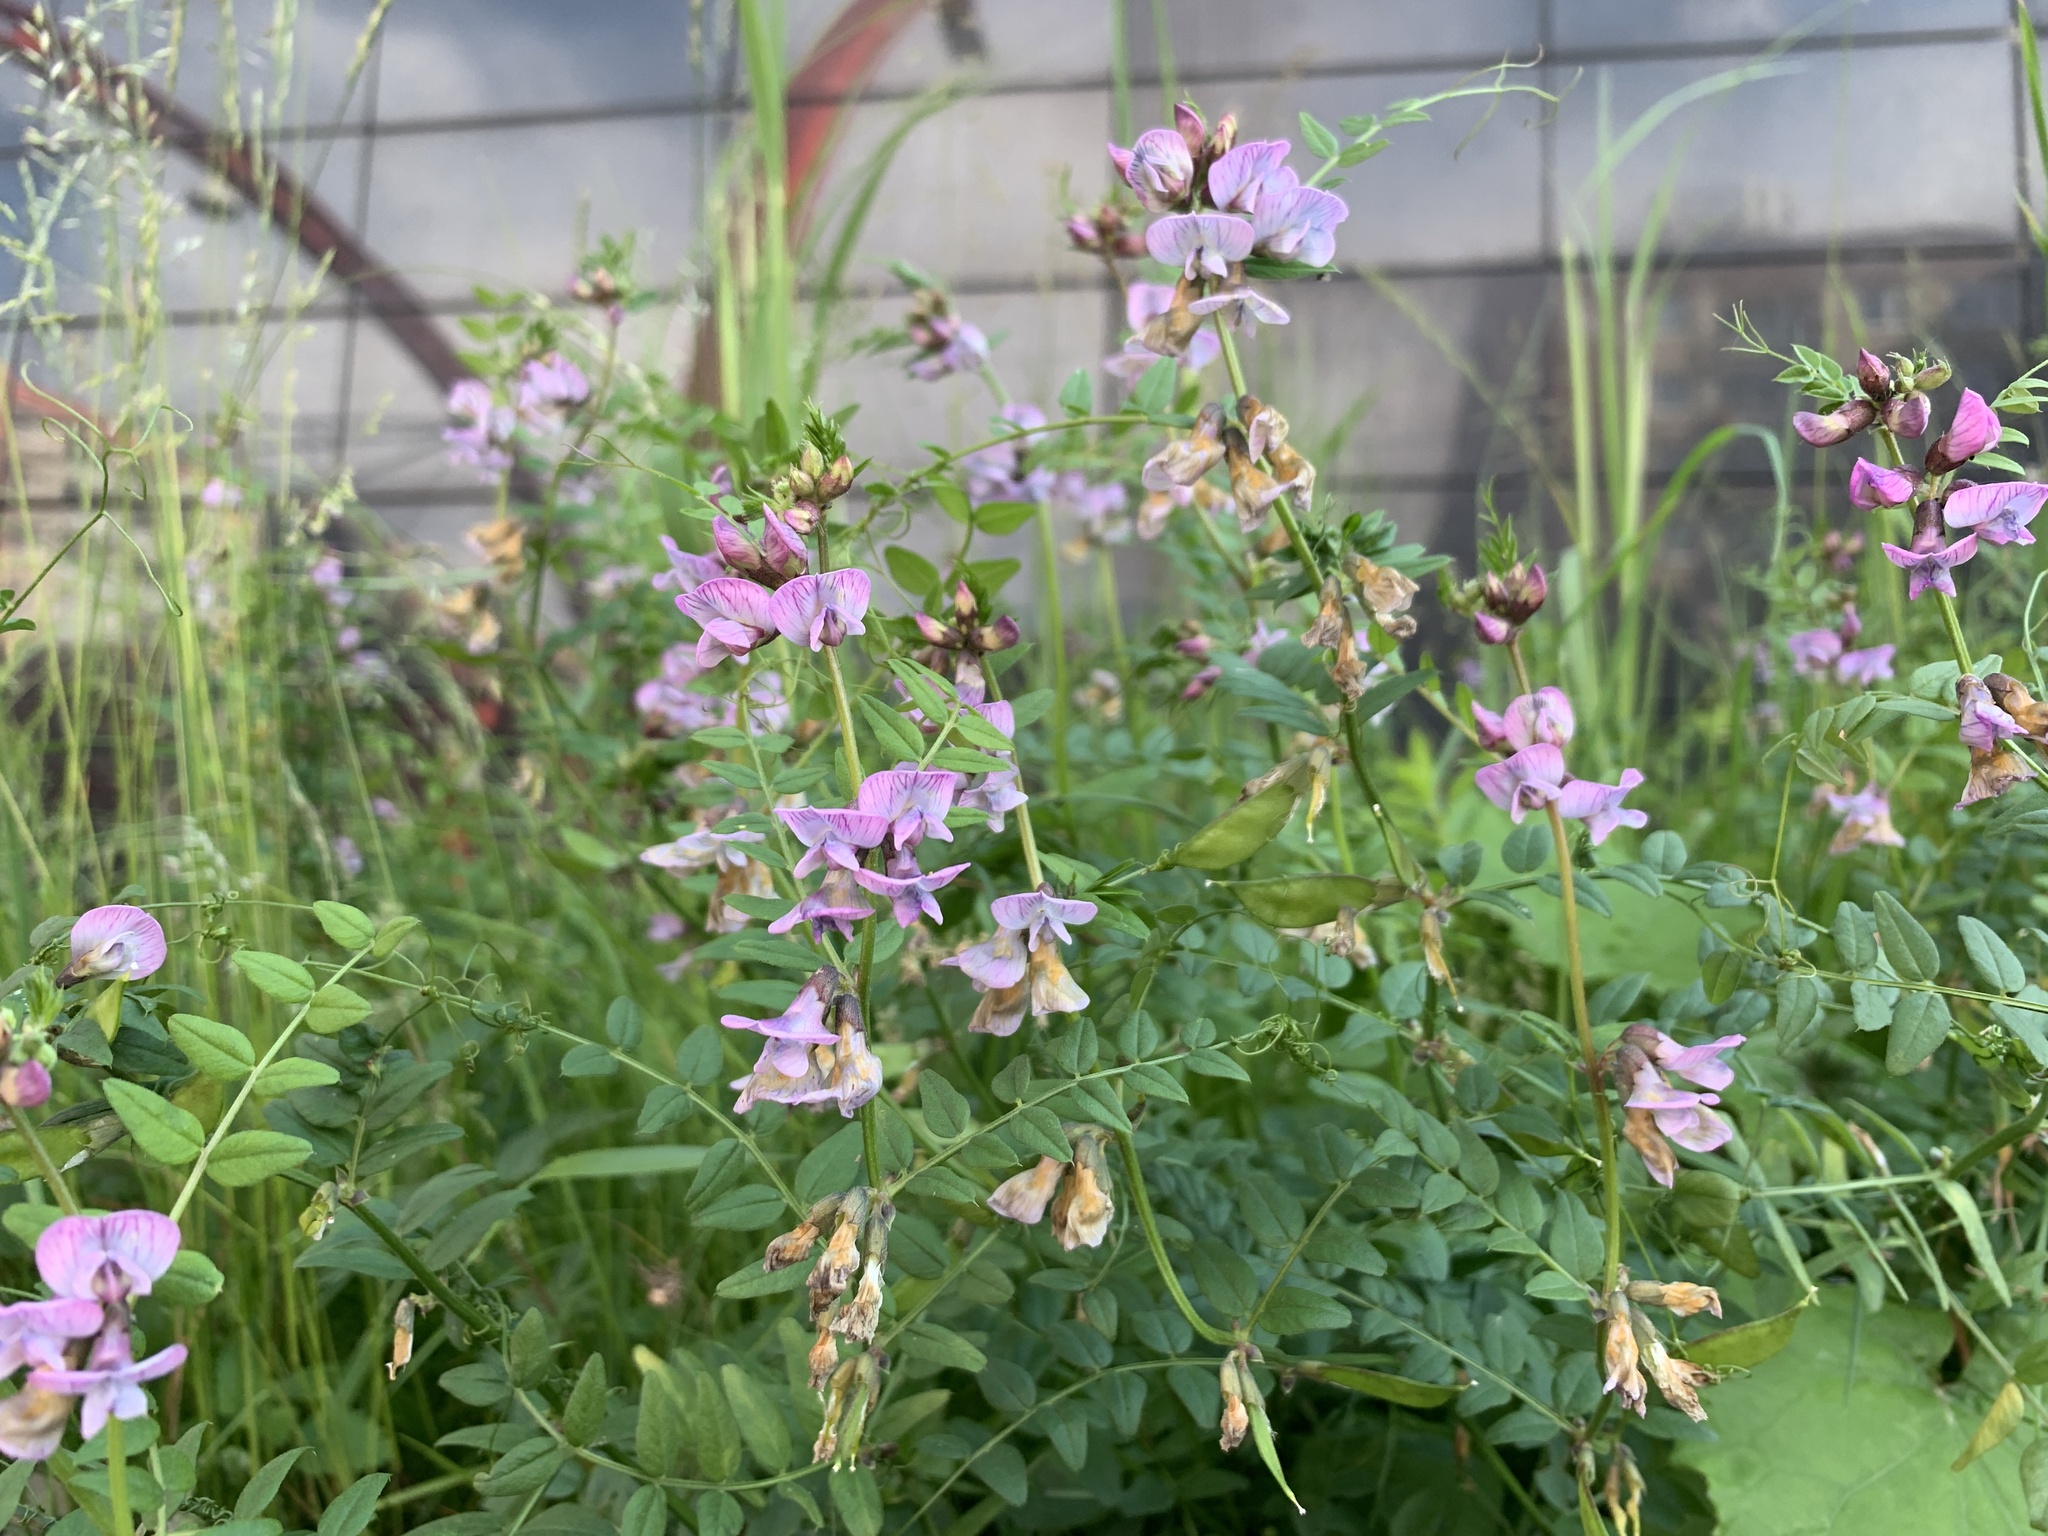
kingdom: Plantae
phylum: Tracheophyta
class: Magnoliopsida
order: Fabales
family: Fabaceae
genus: Vicia
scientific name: Vicia sepium
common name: Bush vetch
